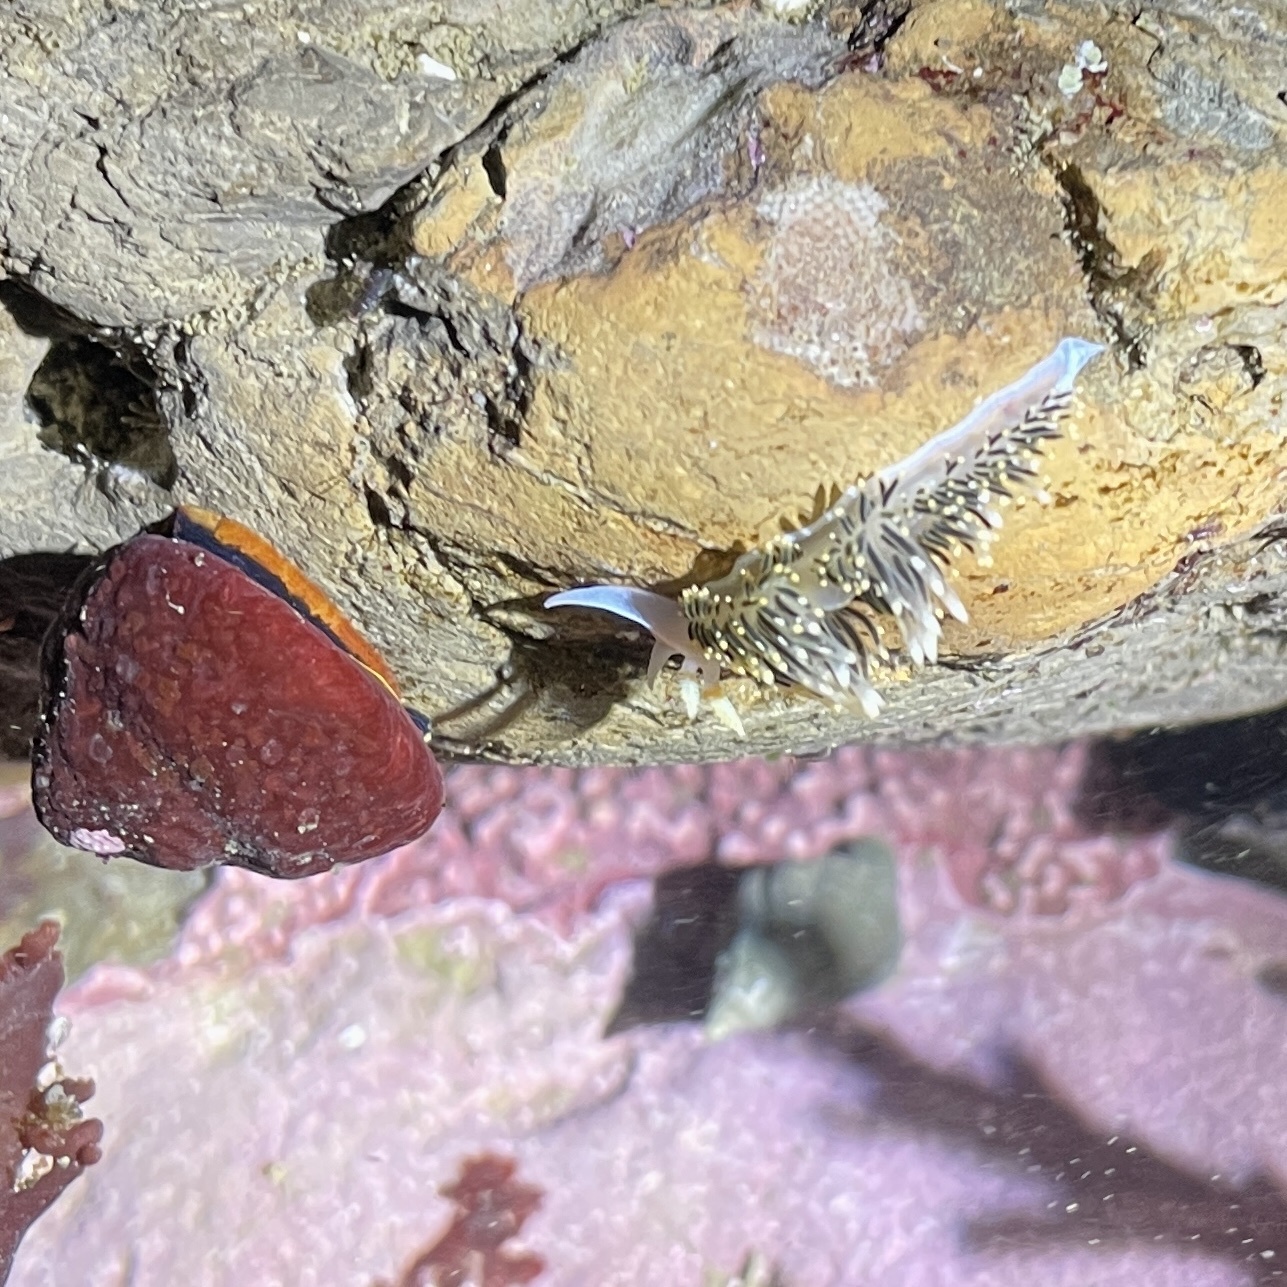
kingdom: Animalia
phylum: Mollusca
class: Gastropoda
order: Nudibranchia
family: Facelinidae
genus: Phidiana
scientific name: Phidiana hiltoni
